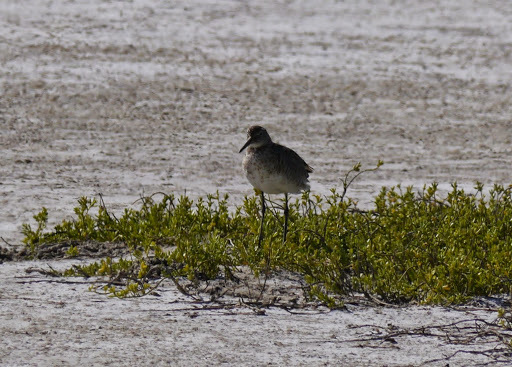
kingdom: Animalia
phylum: Chordata
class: Aves
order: Charadriiformes
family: Scolopacidae
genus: Tringa
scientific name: Tringa semipalmata
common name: Willet
